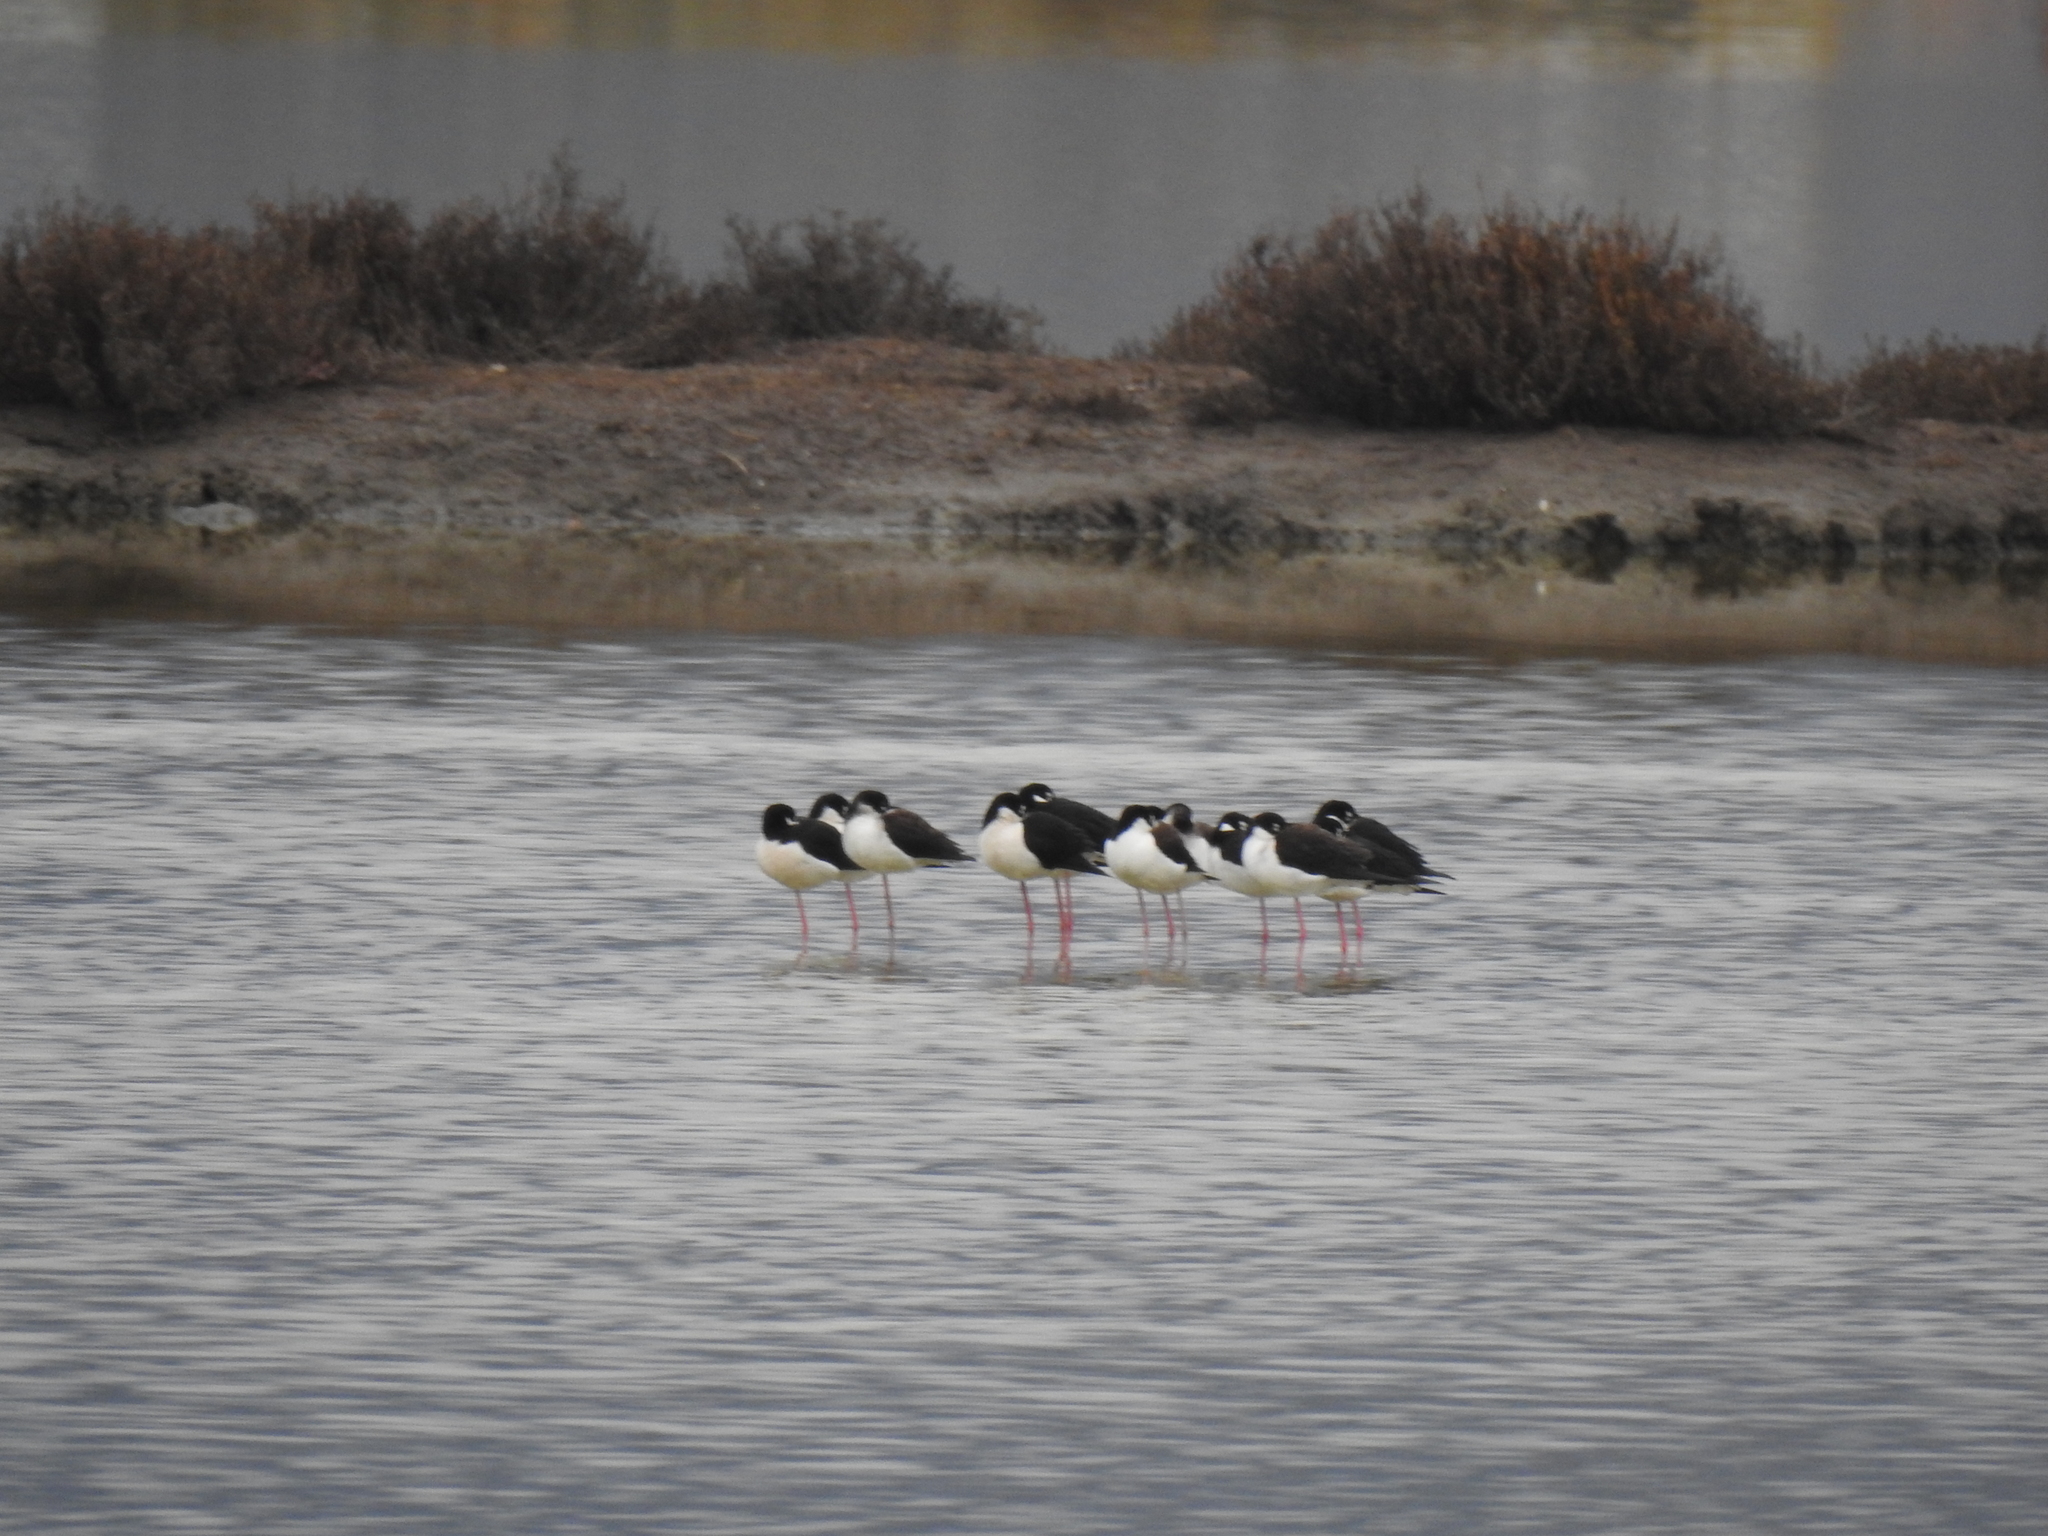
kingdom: Animalia
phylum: Chordata
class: Aves
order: Charadriiformes
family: Recurvirostridae
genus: Himantopus
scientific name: Himantopus mexicanus
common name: Black-necked stilt
